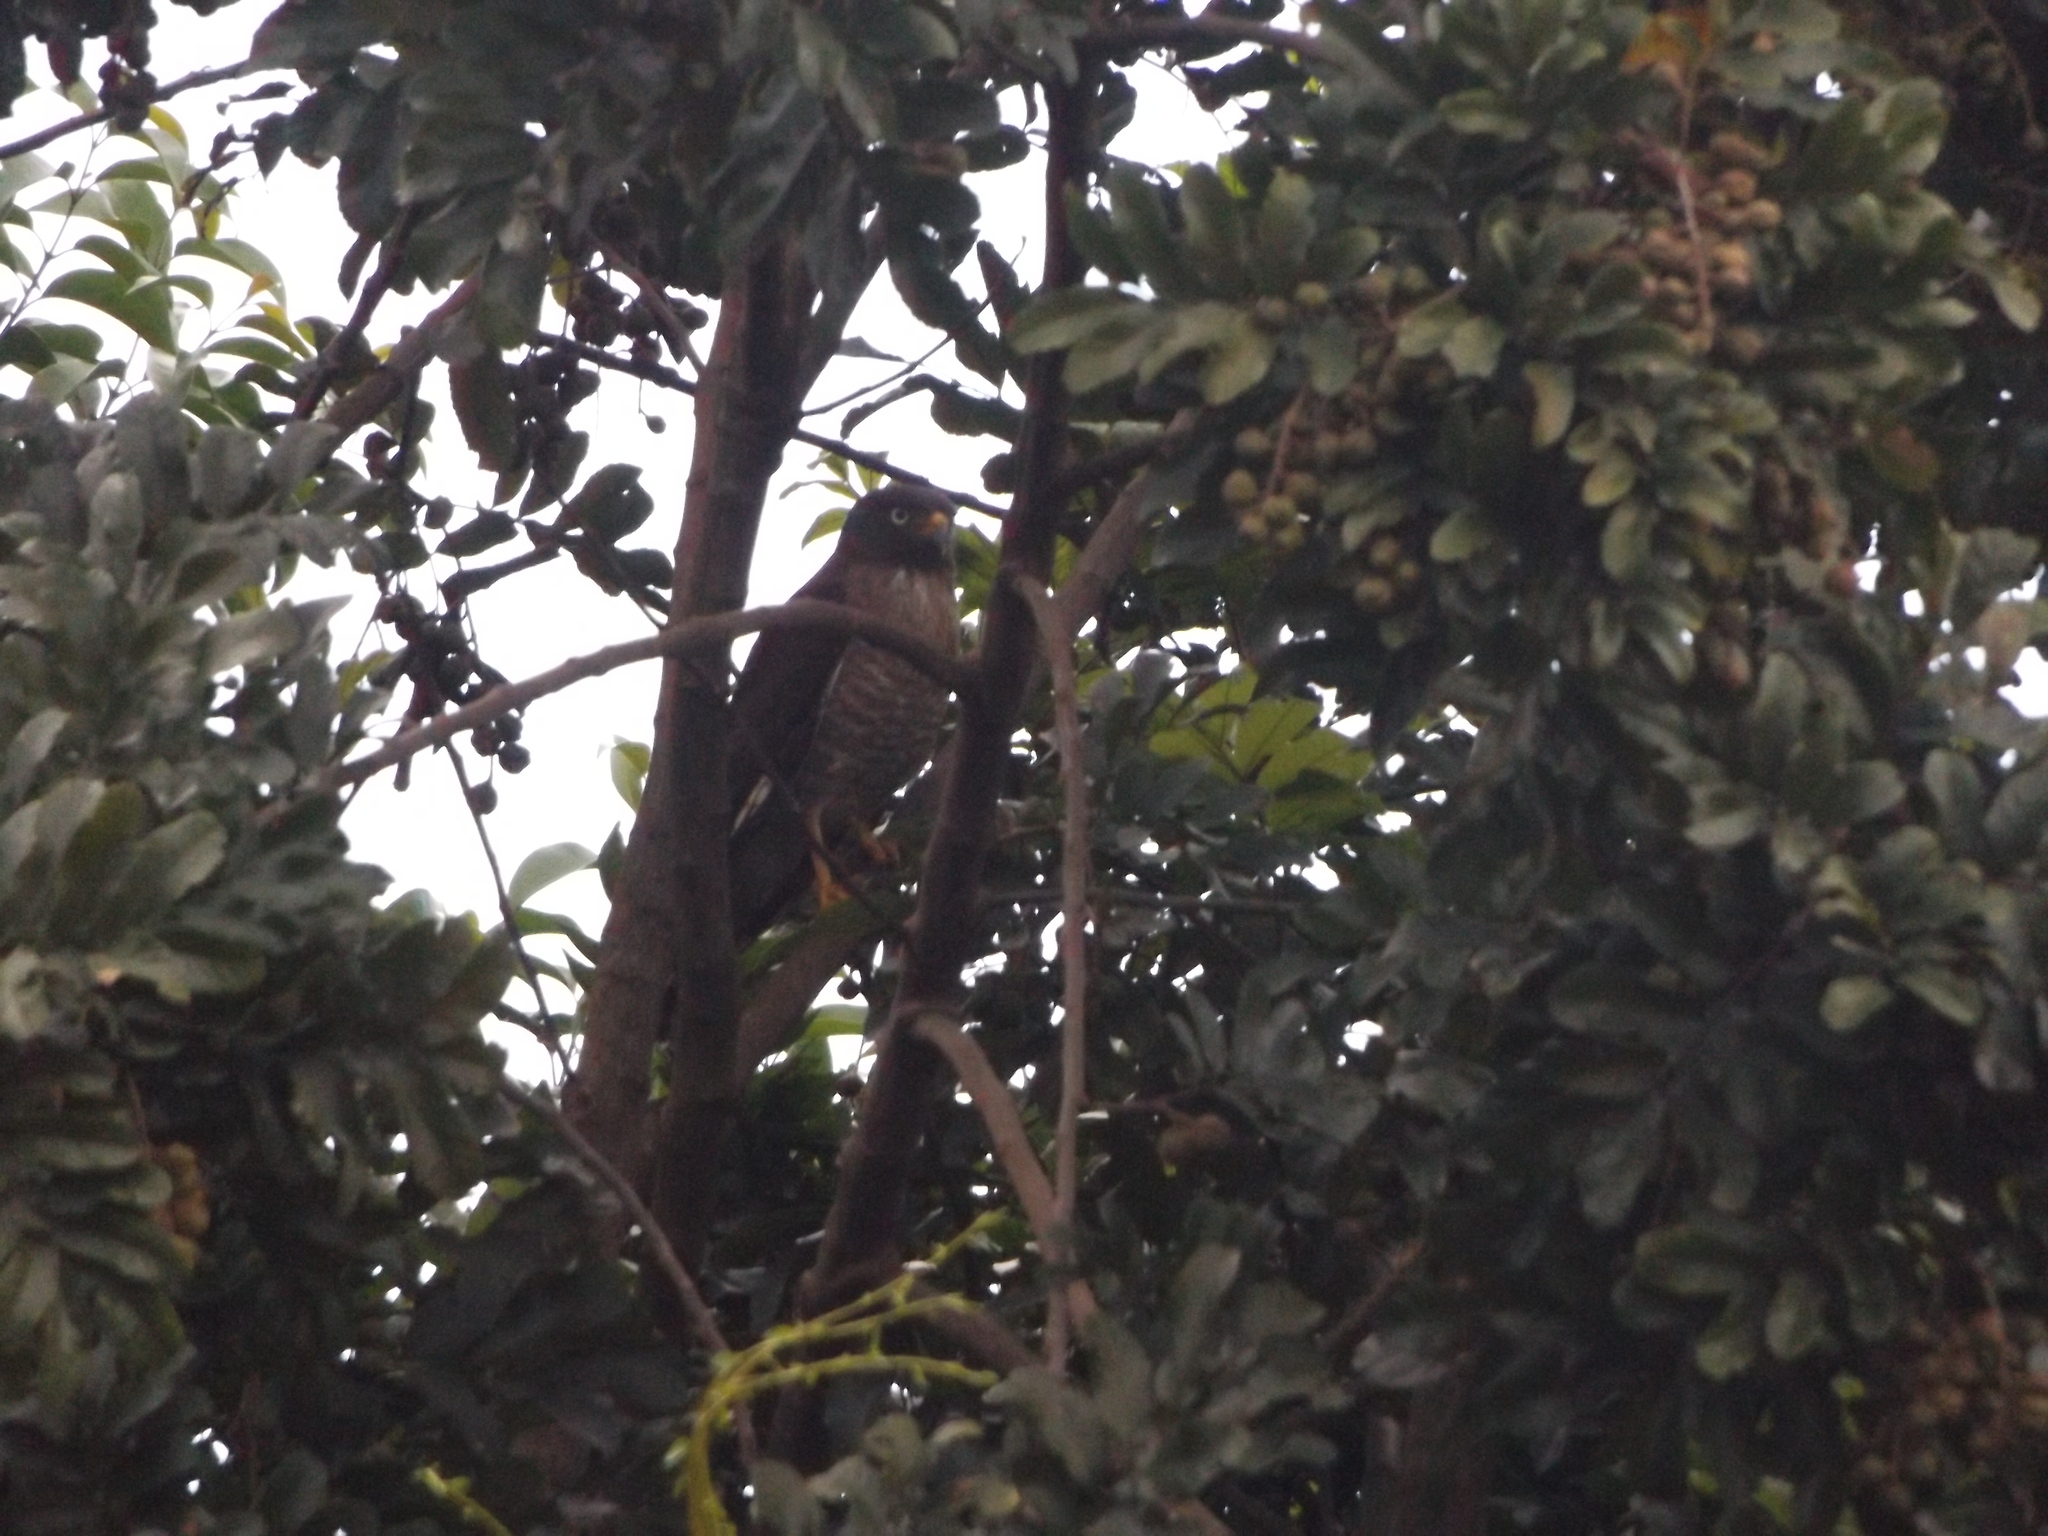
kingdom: Animalia
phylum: Chordata
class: Aves
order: Accipitriformes
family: Accipitridae
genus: Rupornis
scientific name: Rupornis magnirostris
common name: Roadside hawk
